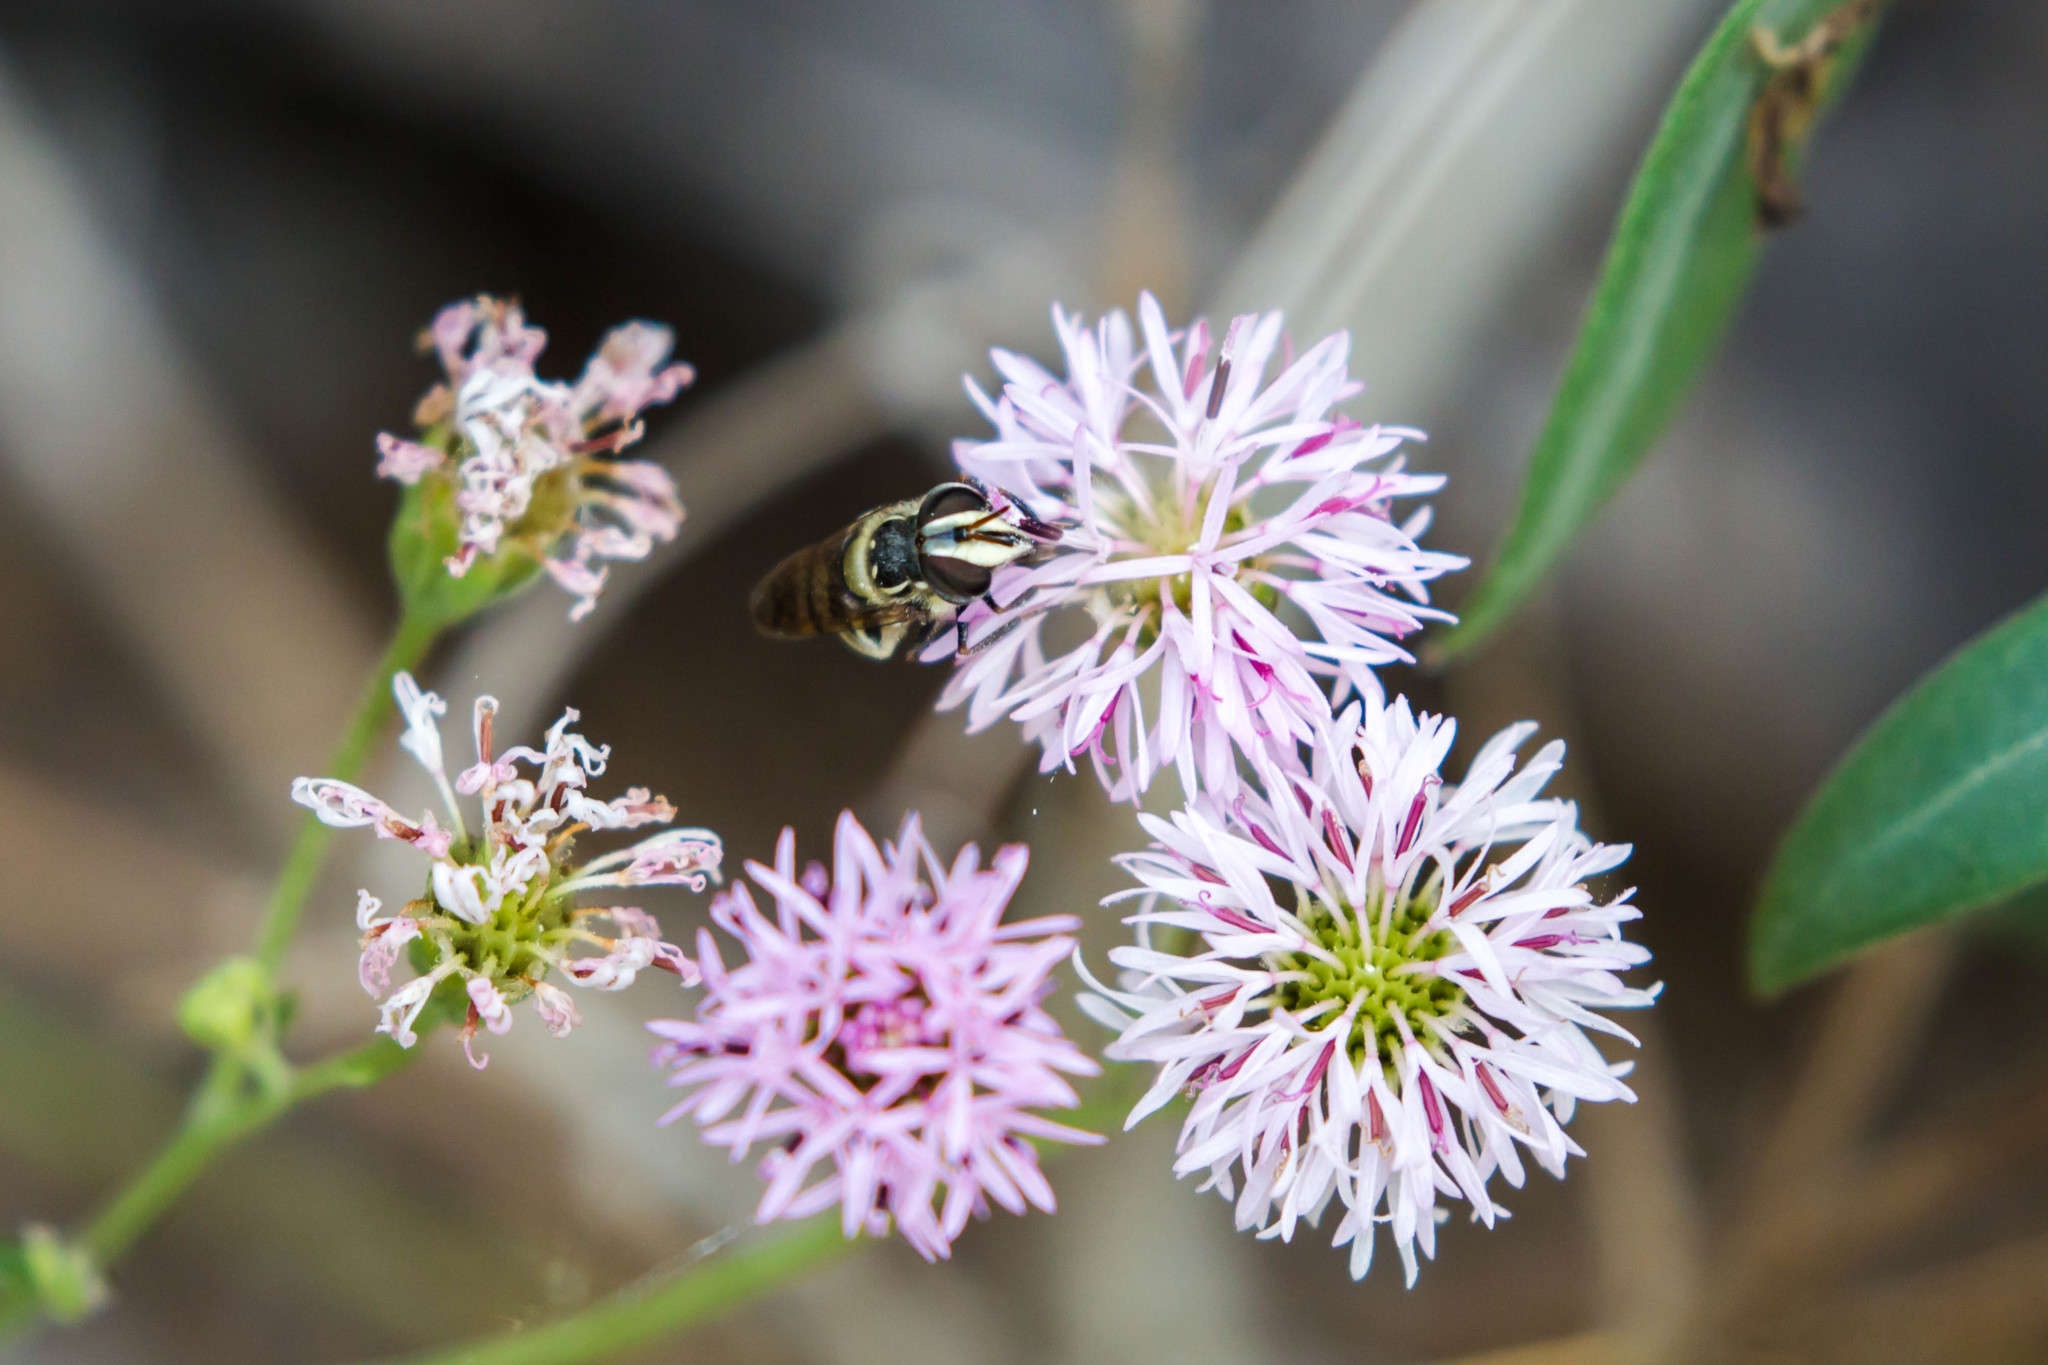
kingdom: Animalia
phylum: Arthropoda
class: Insecta
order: Diptera
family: Syrphidae
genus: Copestylum
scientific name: Copestylum fraudulentum
